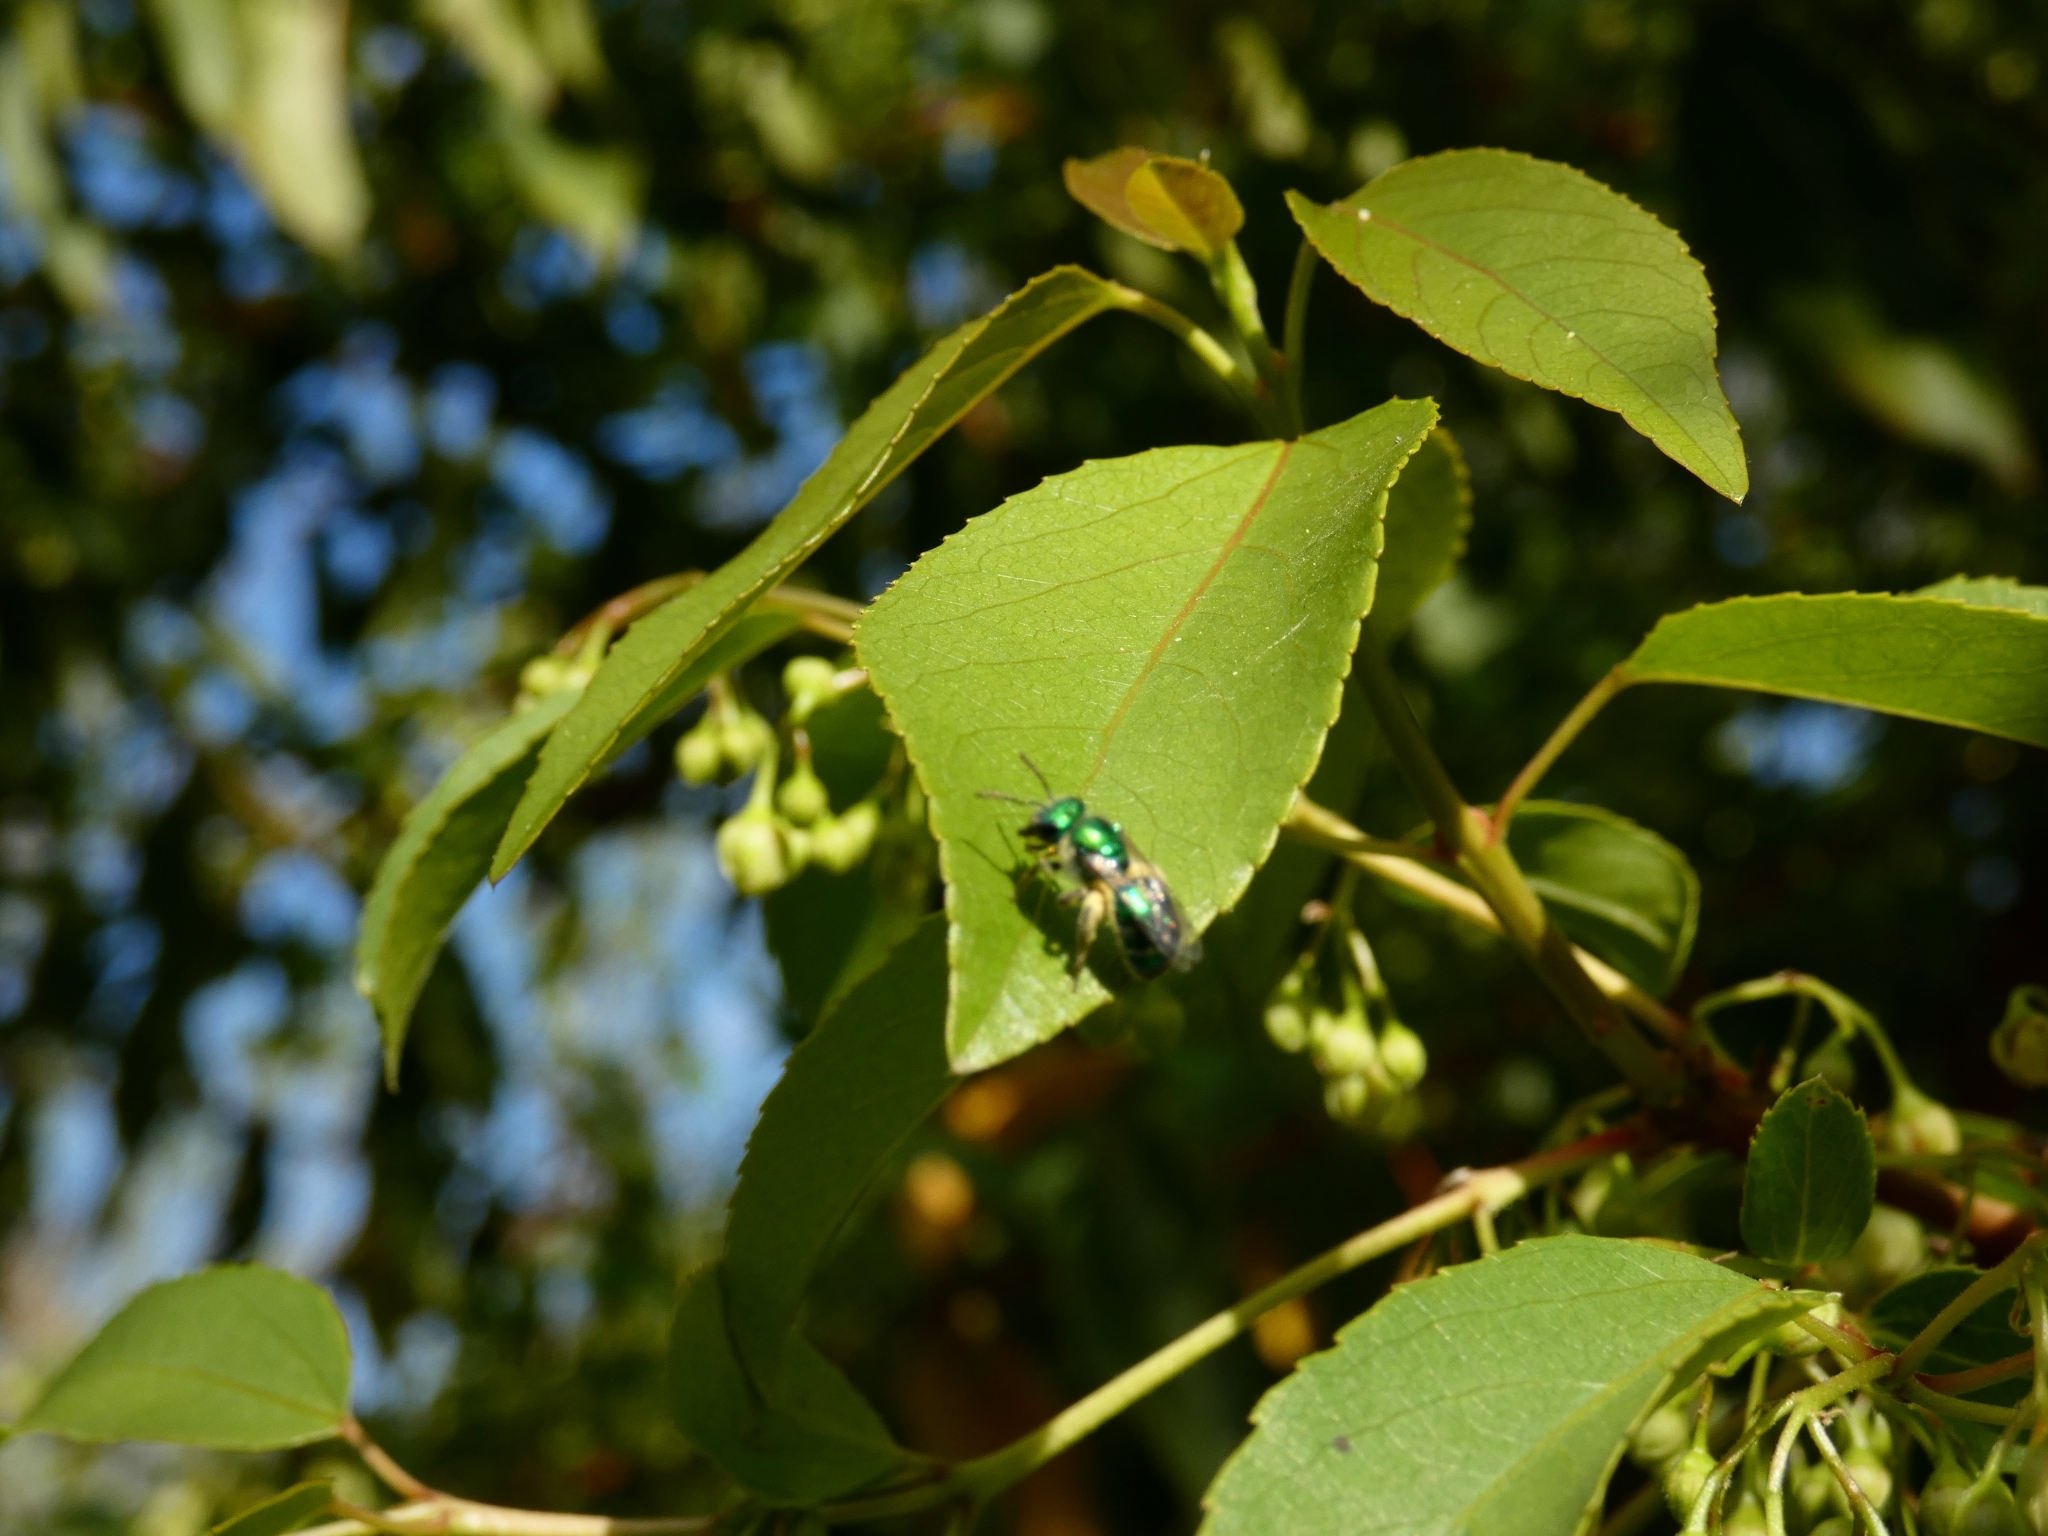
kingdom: Animalia
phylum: Arthropoda
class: Insecta
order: Hymenoptera
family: Halictidae
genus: Callistochlora
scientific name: Callistochlora
